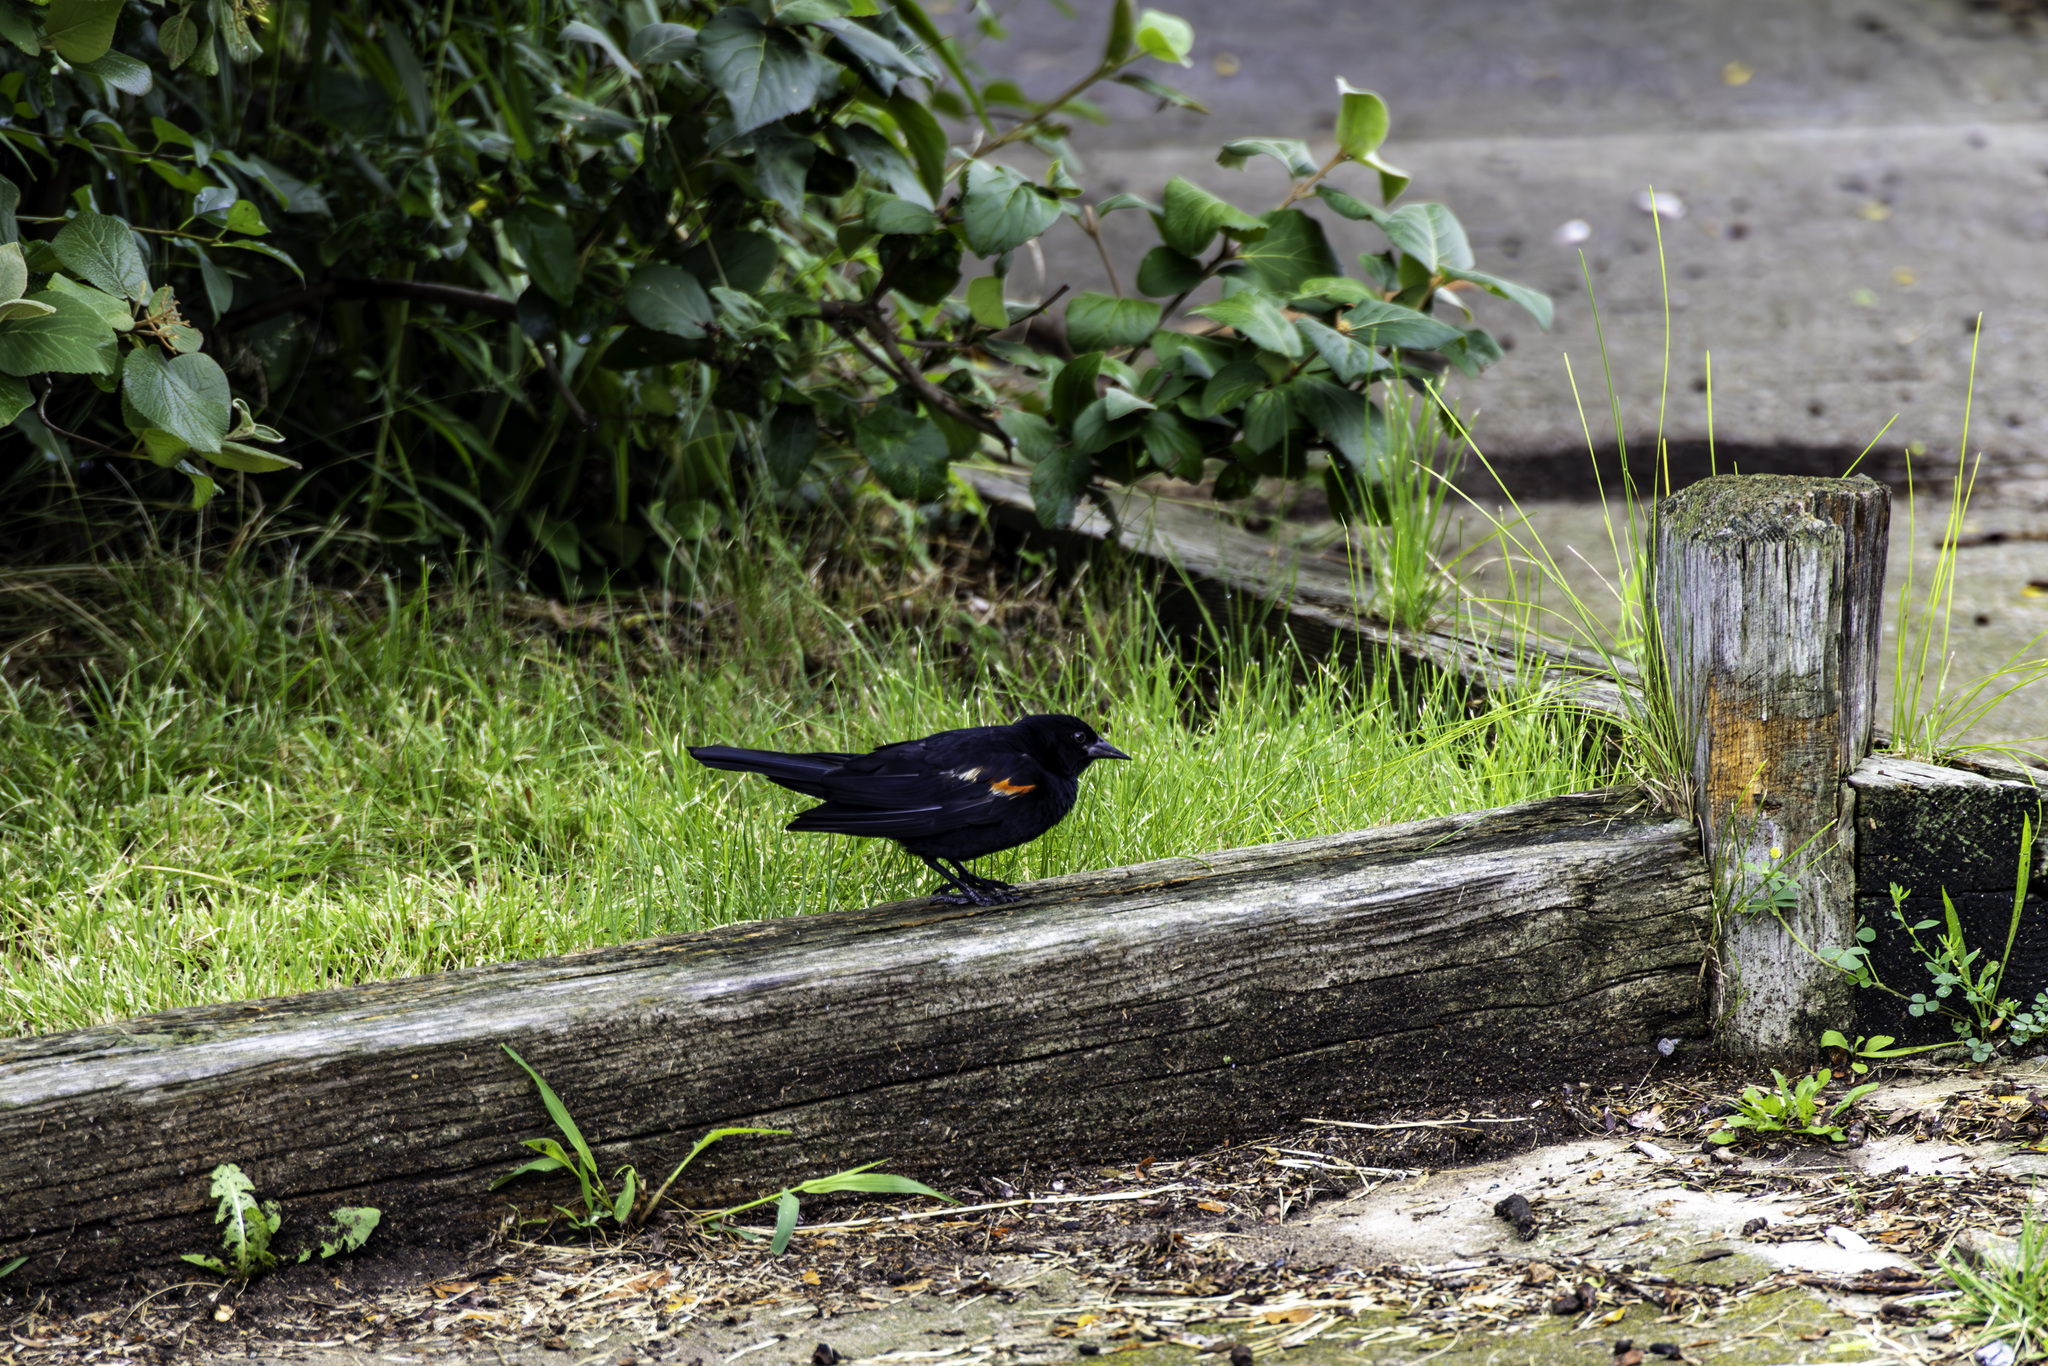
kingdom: Animalia
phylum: Chordata
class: Aves
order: Passeriformes
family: Icteridae
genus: Agelaius
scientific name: Agelaius phoeniceus
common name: Red-winged blackbird
